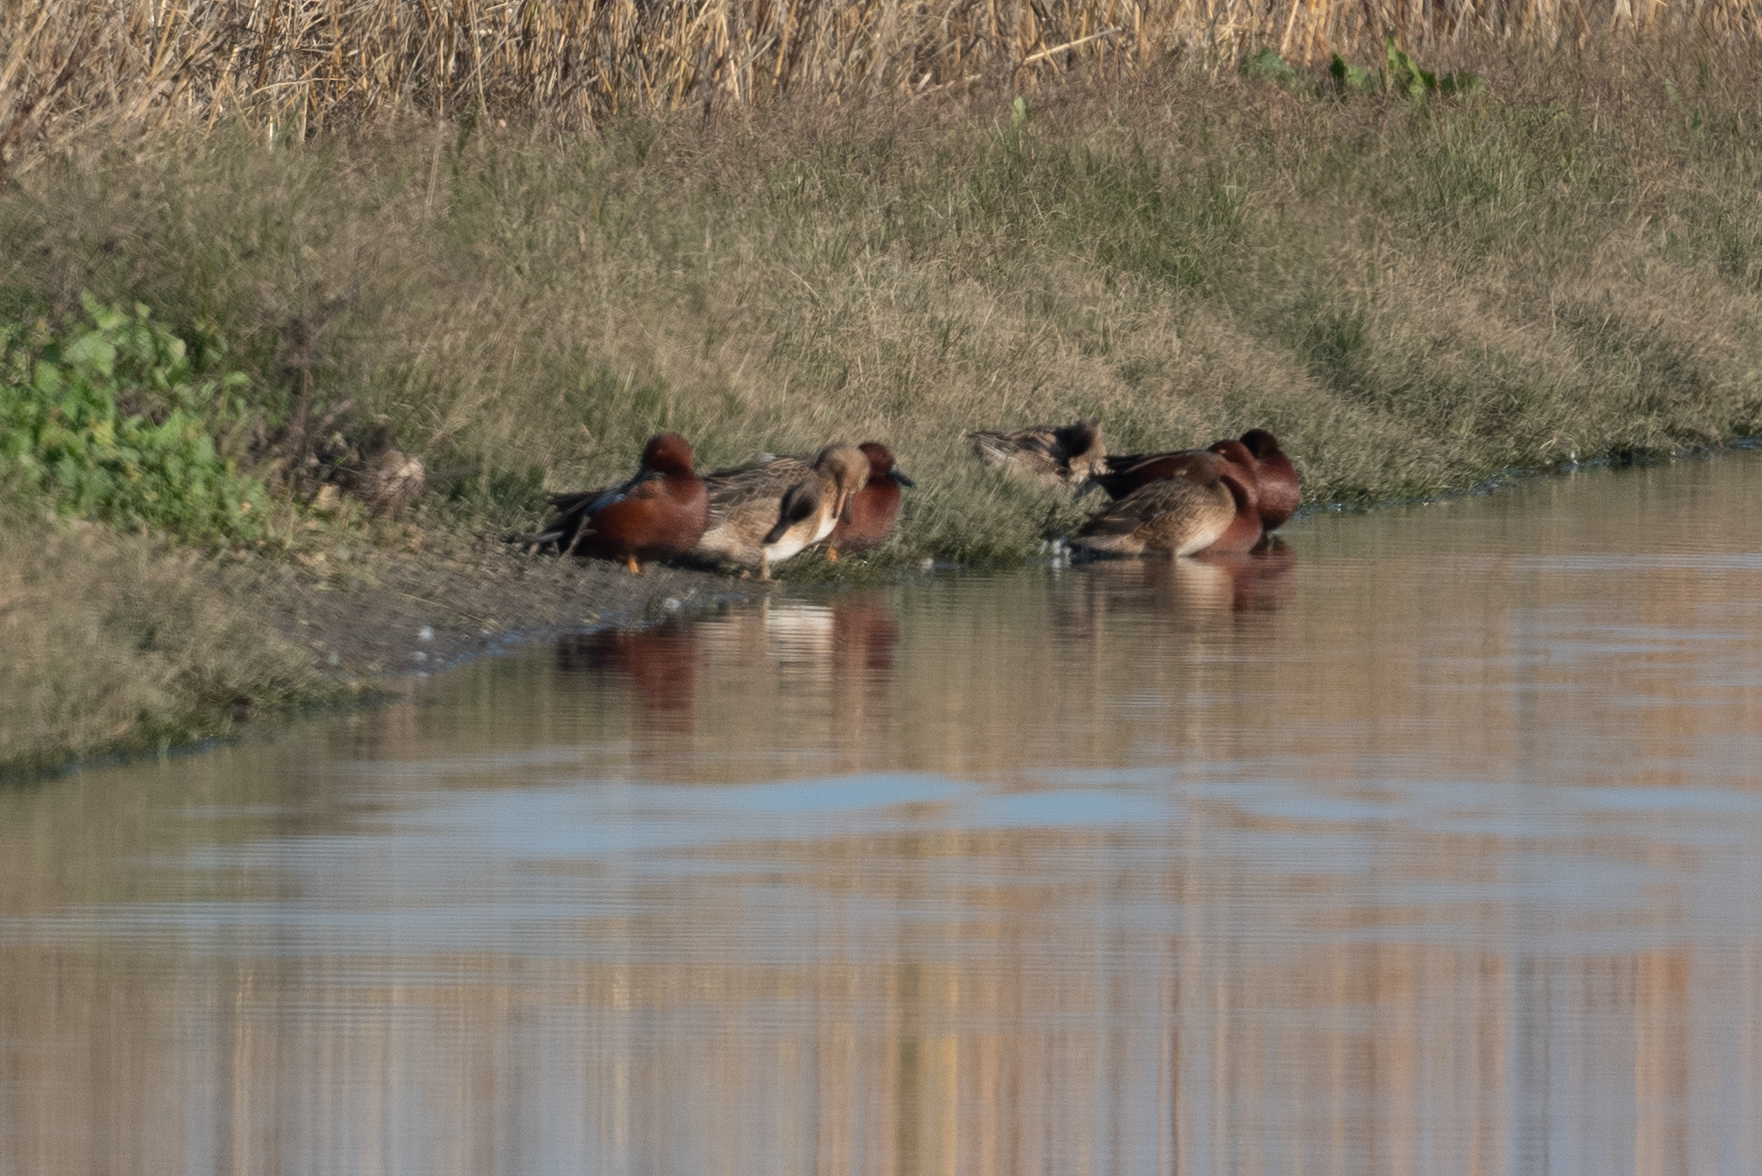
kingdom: Animalia
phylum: Chordata
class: Aves
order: Anseriformes
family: Anatidae
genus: Spatula
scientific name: Spatula cyanoptera
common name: Cinnamon teal
